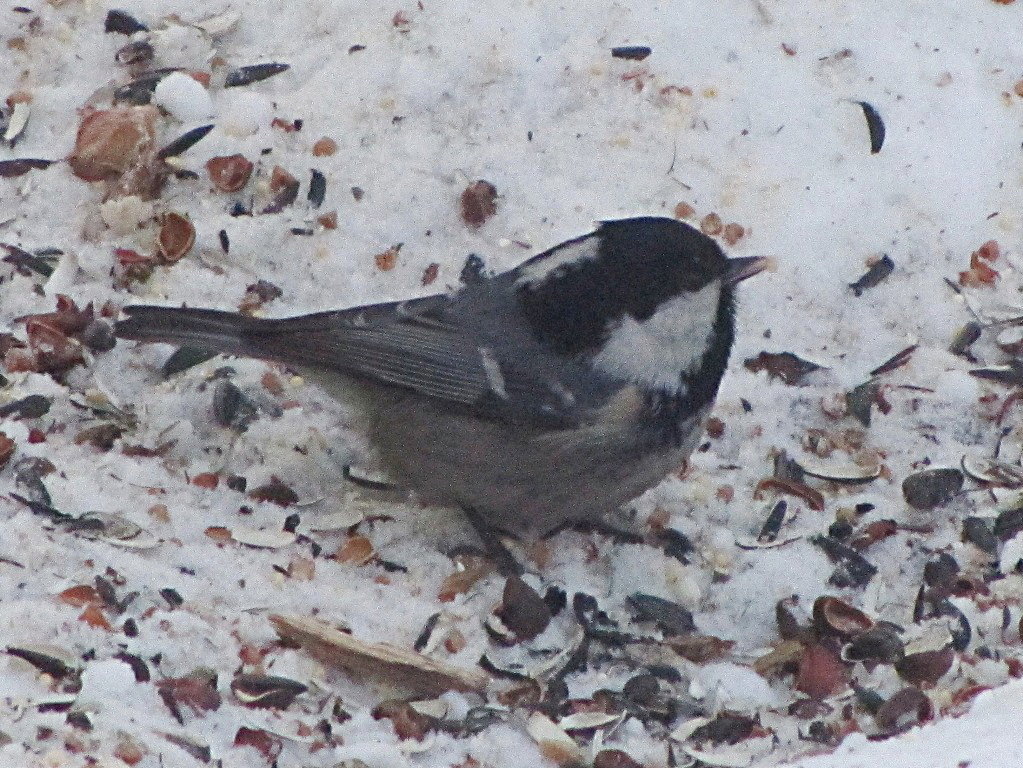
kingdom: Animalia
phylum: Chordata
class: Aves
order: Passeriformes
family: Paridae
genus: Periparus
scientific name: Periparus ater
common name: Coal tit
